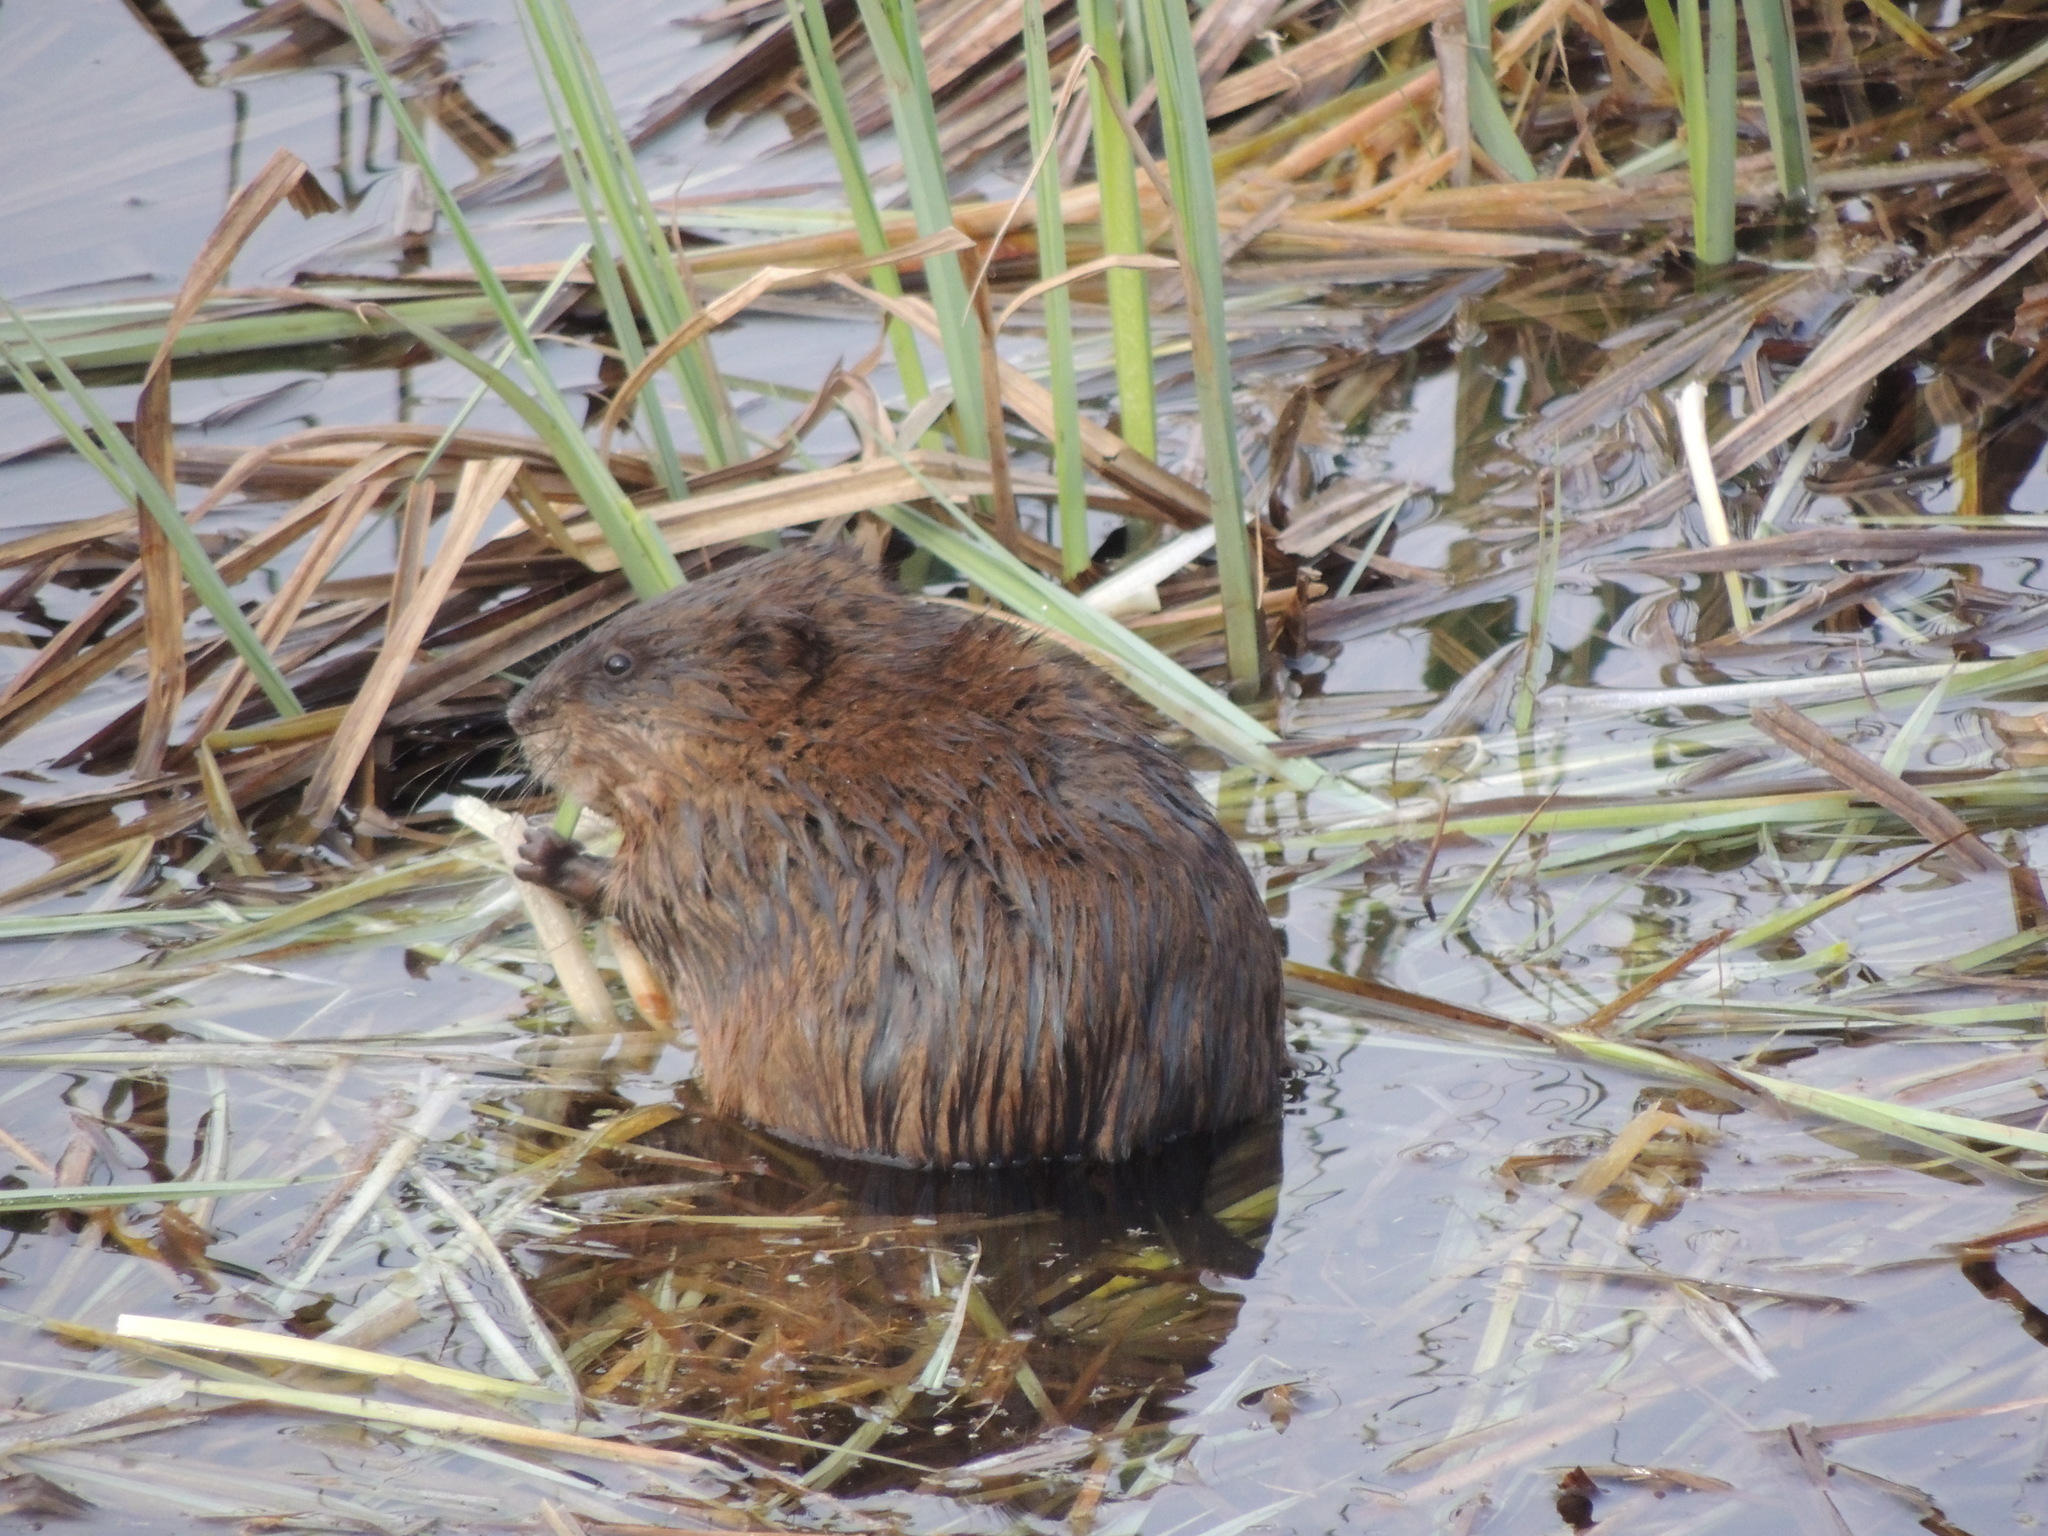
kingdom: Animalia
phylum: Chordata
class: Mammalia
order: Rodentia
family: Cricetidae
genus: Ondatra
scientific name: Ondatra zibethicus
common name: Muskrat
